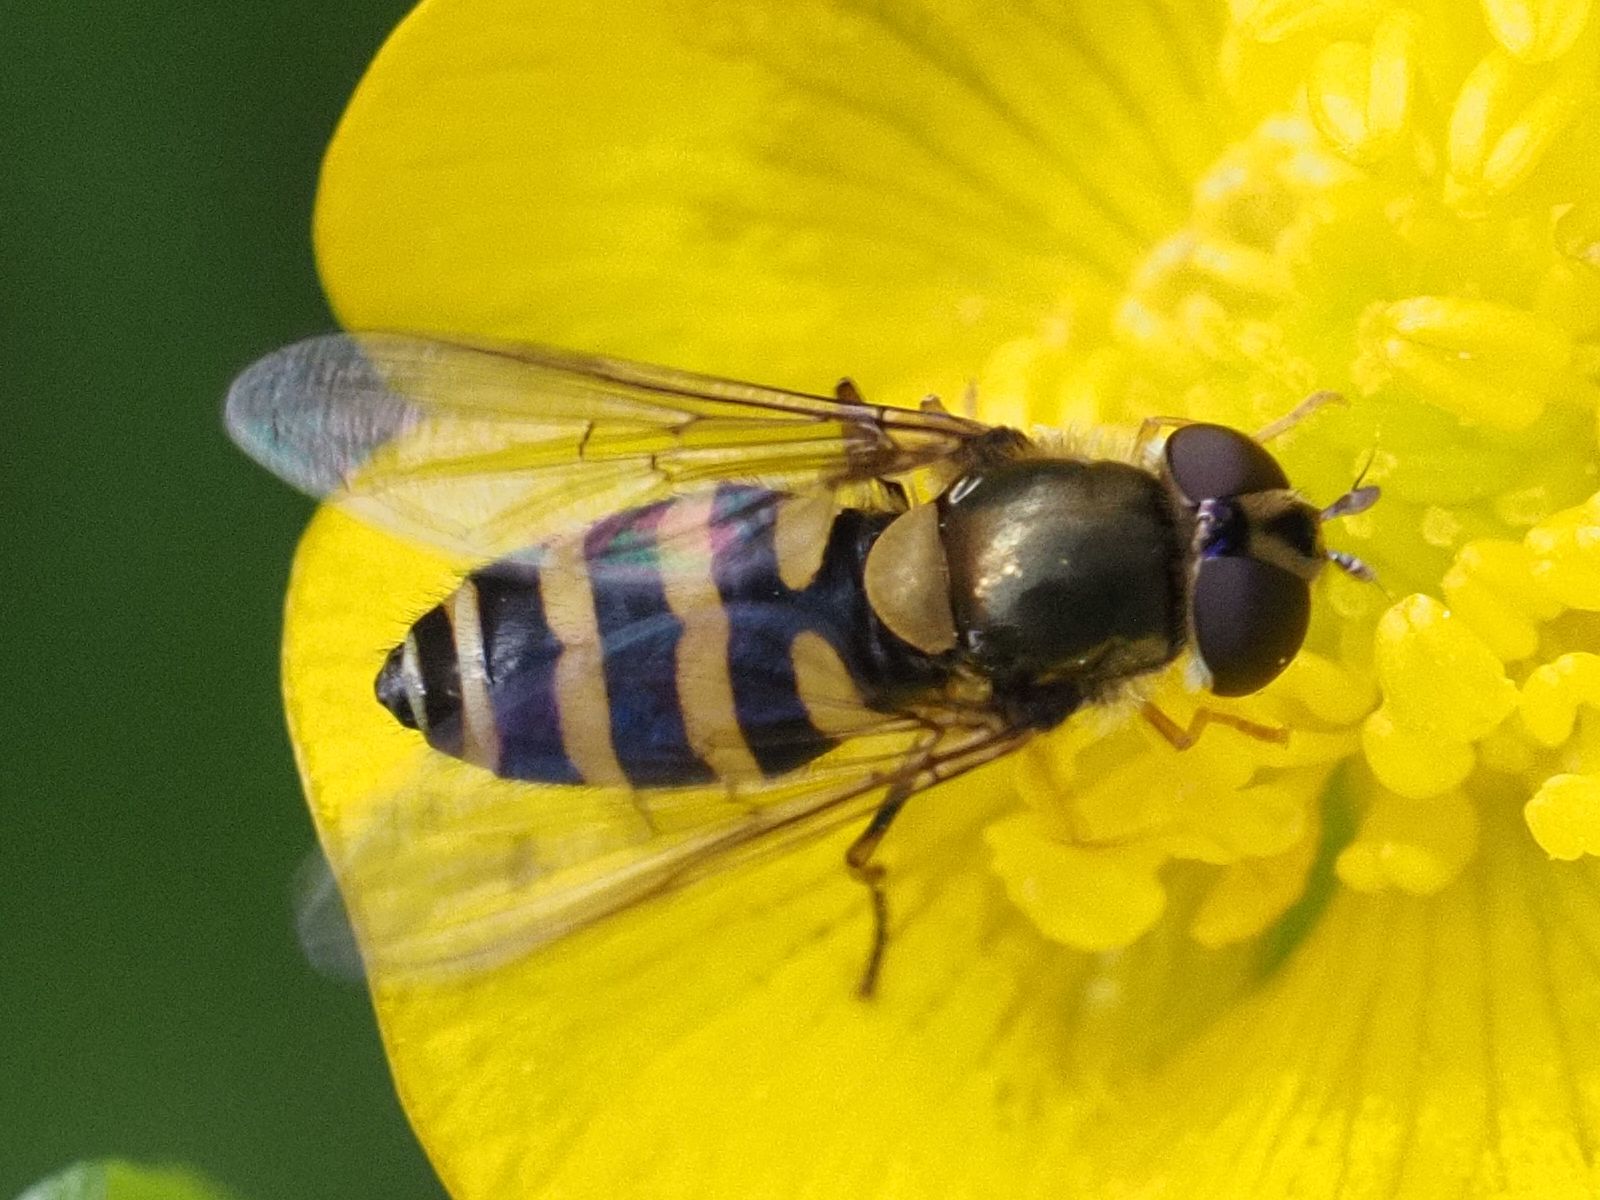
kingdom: Animalia
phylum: Arthropoda
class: Insecta
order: Diptera
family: Syrphidae
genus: Syrphus
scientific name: Syrphus
